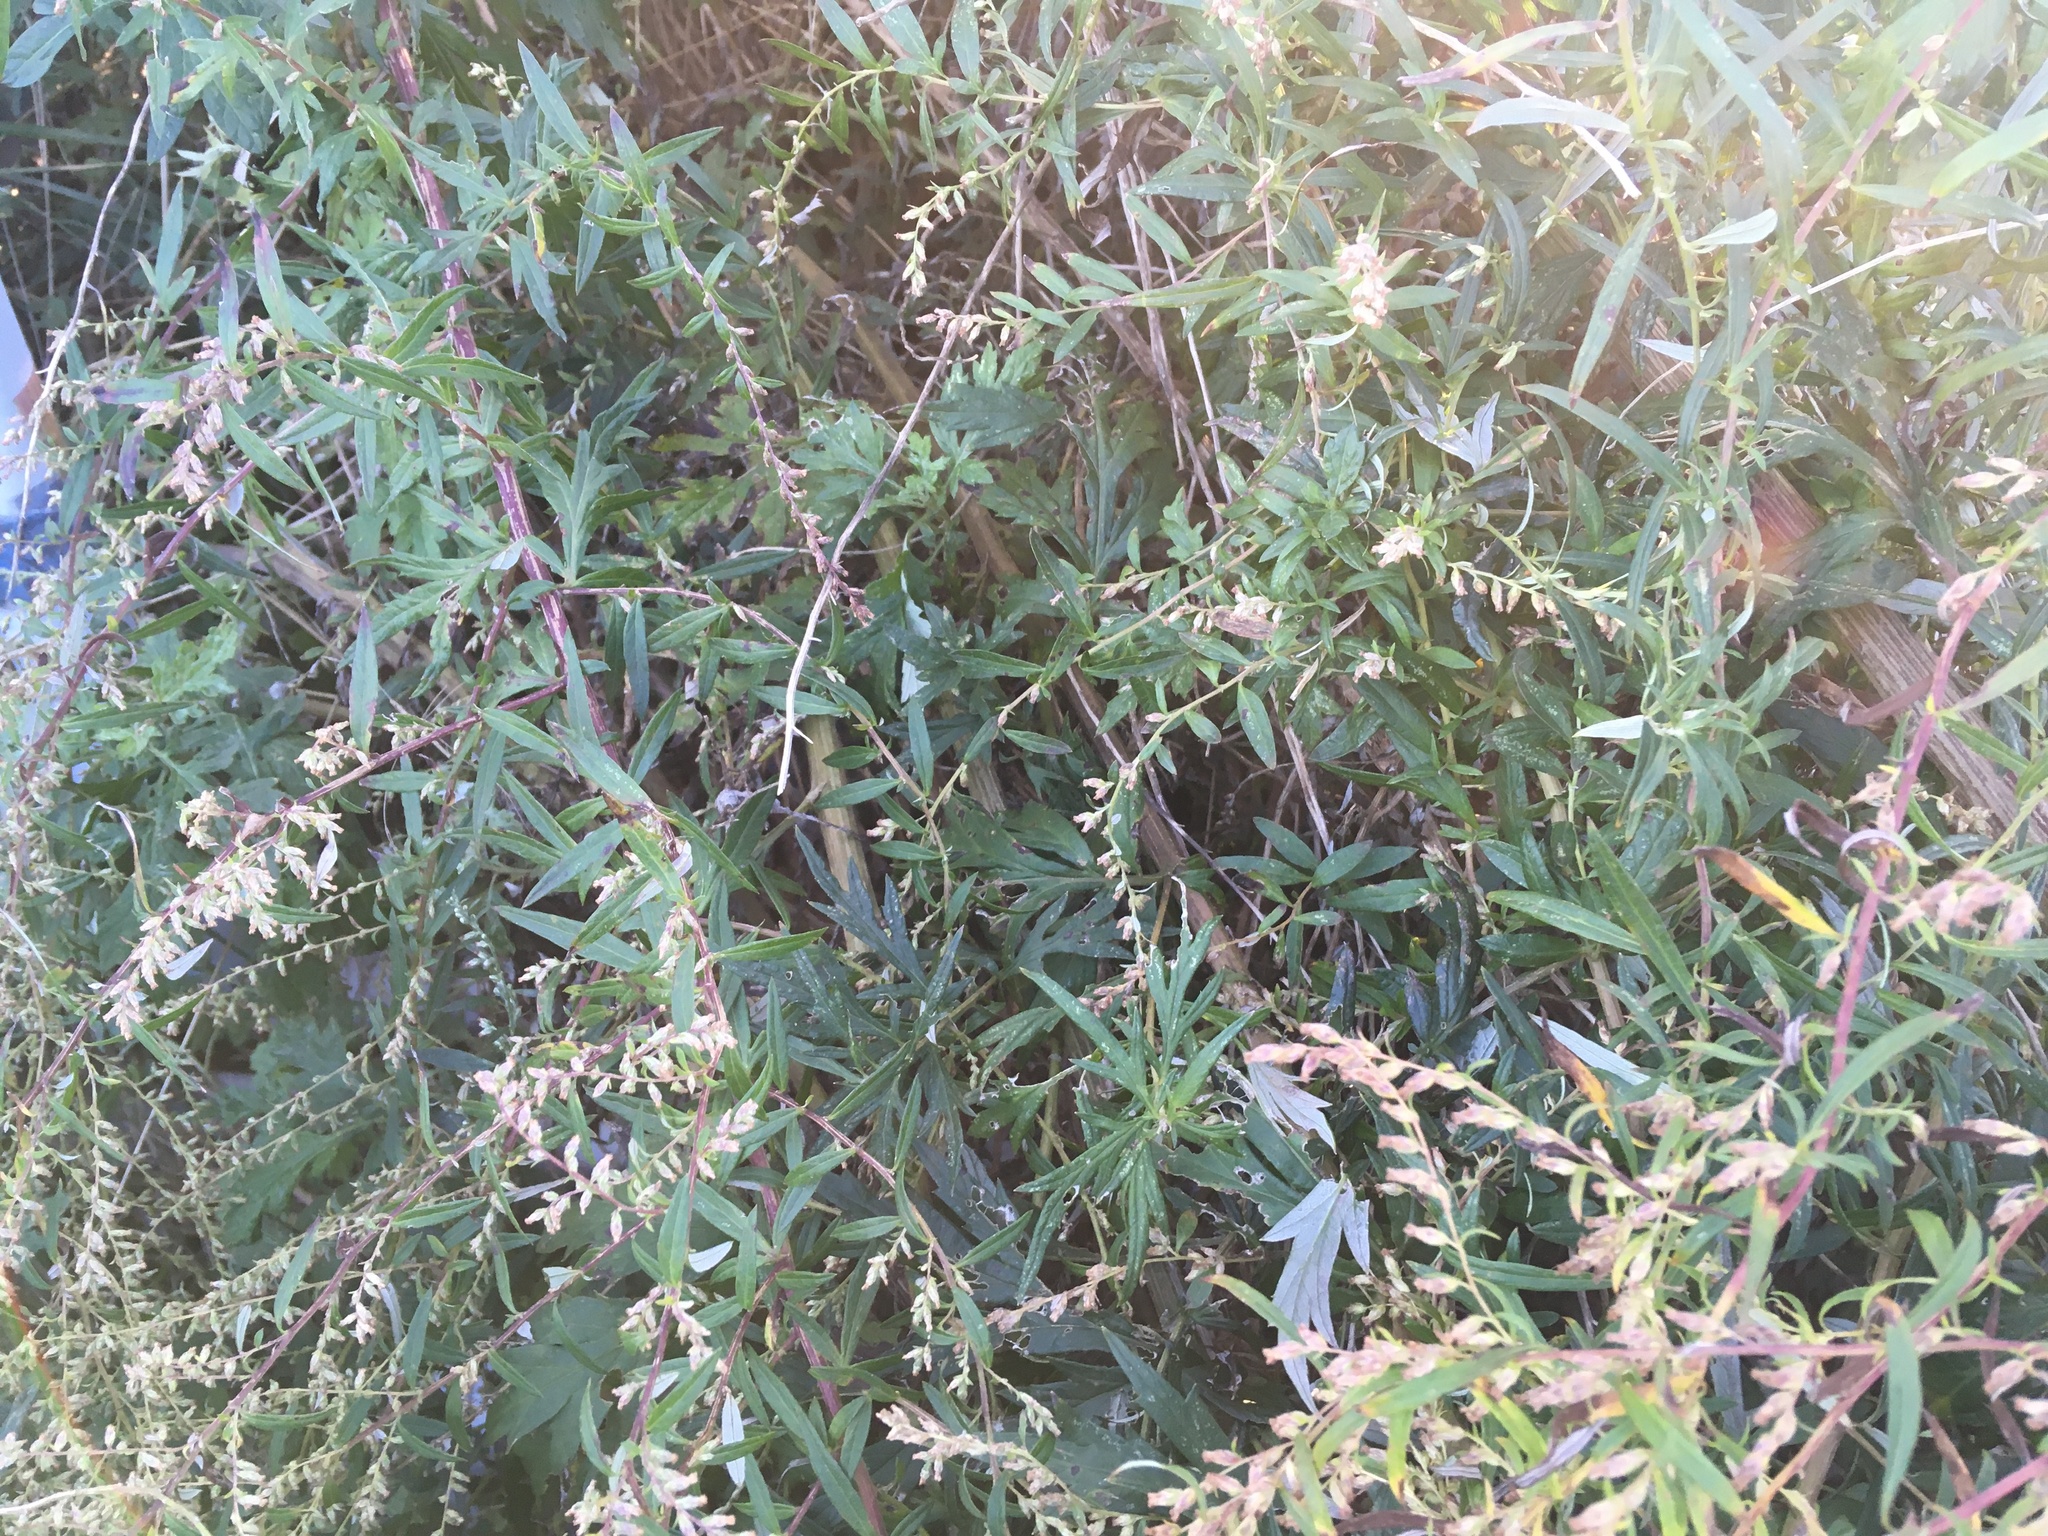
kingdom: Plantae
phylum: Tracheophyta
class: Magnoliopsida
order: Asterales
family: Asteraceae
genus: Artemisia
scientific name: Artemisia vulgaris
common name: Mugwort
